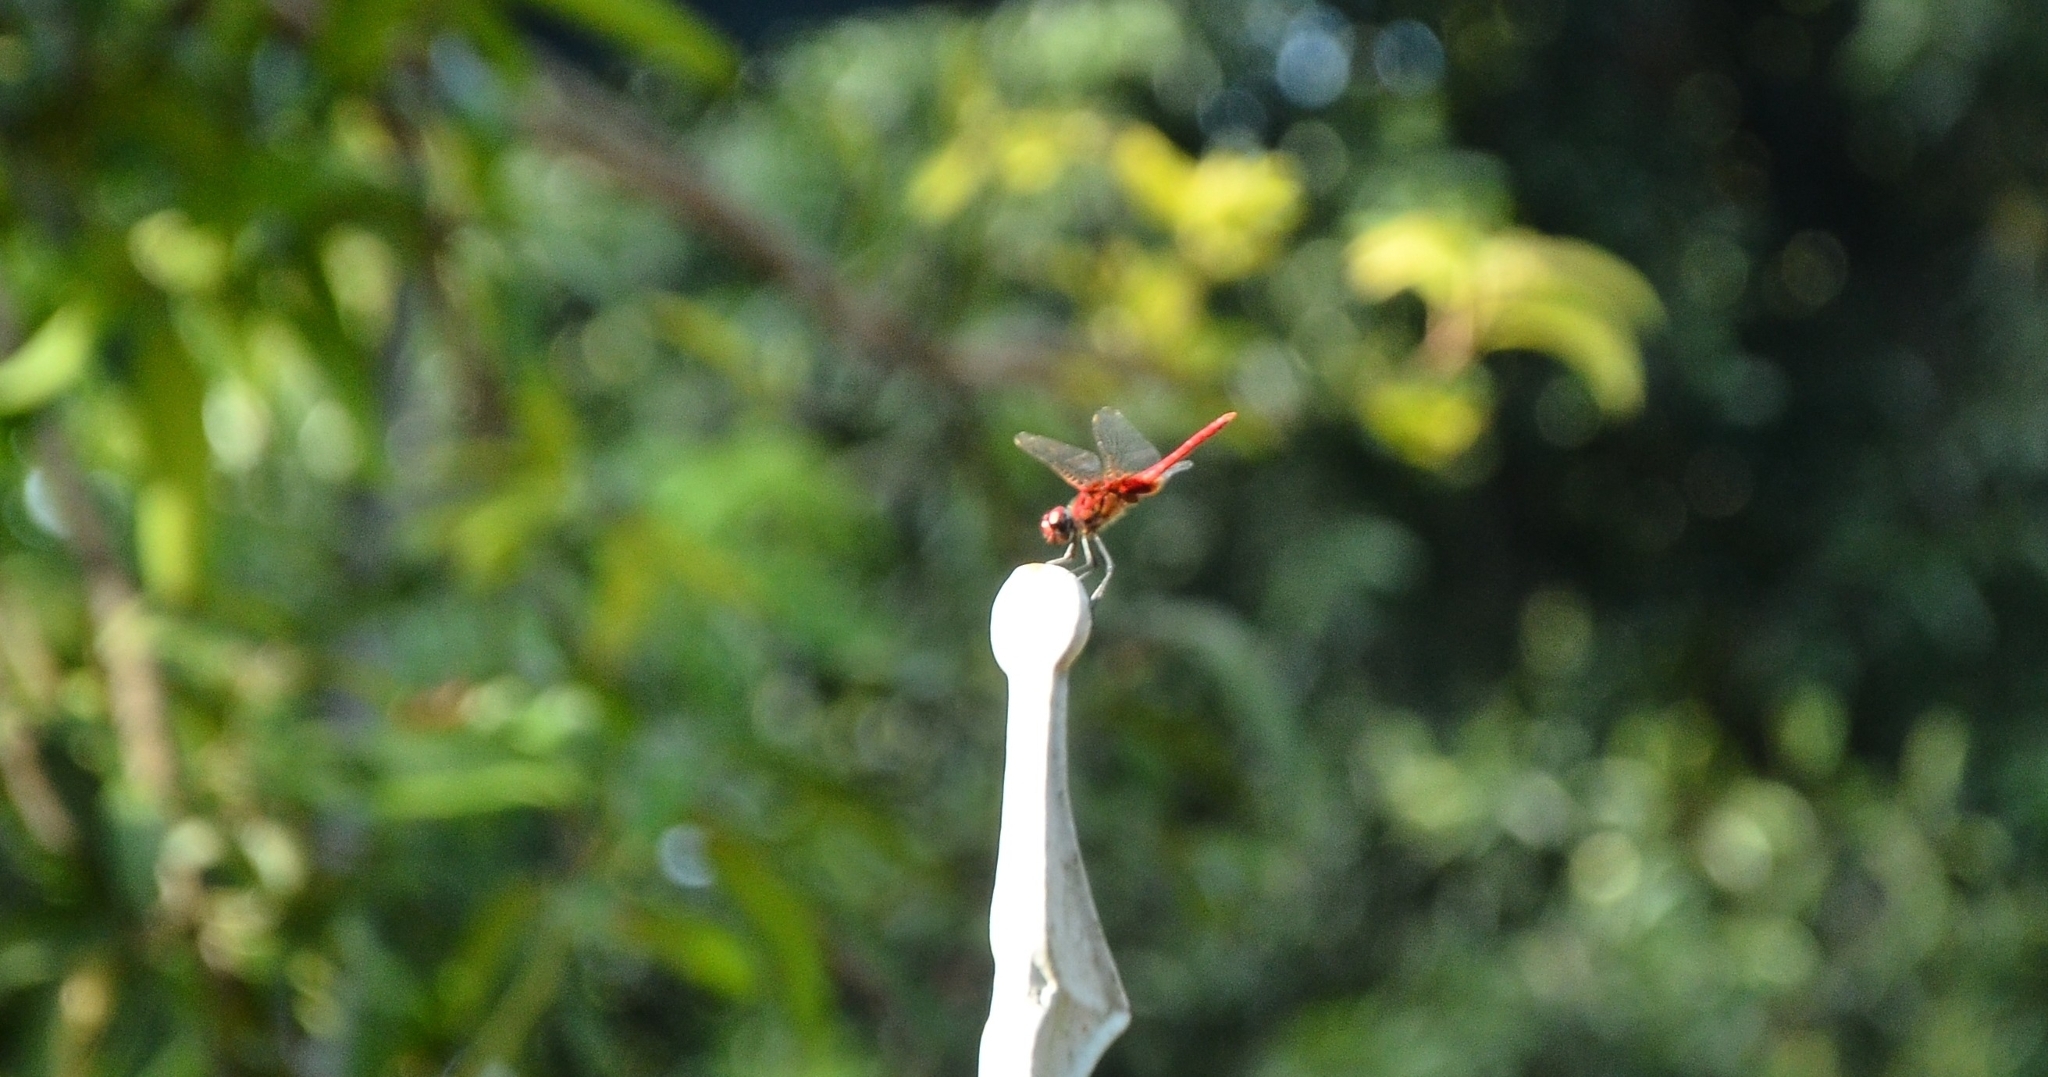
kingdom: Animalia
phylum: Arthropoda
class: Insecta
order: Odonata
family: Libellulidae
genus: Urothemis
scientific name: Urothemis signata
